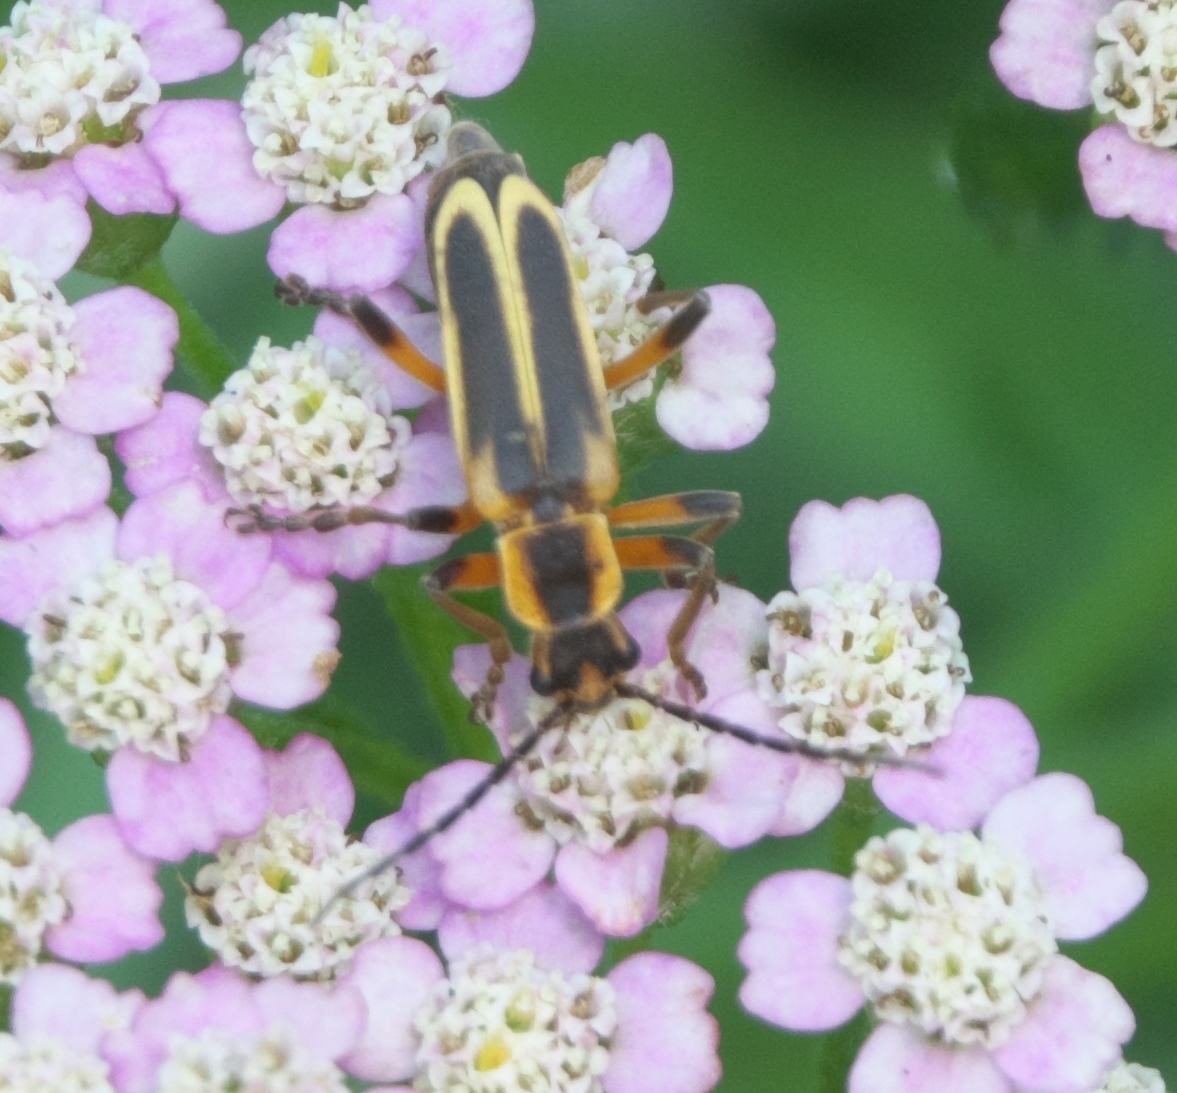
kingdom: Animalia
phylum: Arthropoda
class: Insecta
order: Coleoptera
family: Cantharidae
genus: Chauliognathus
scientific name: Chauliognathus marginatus
